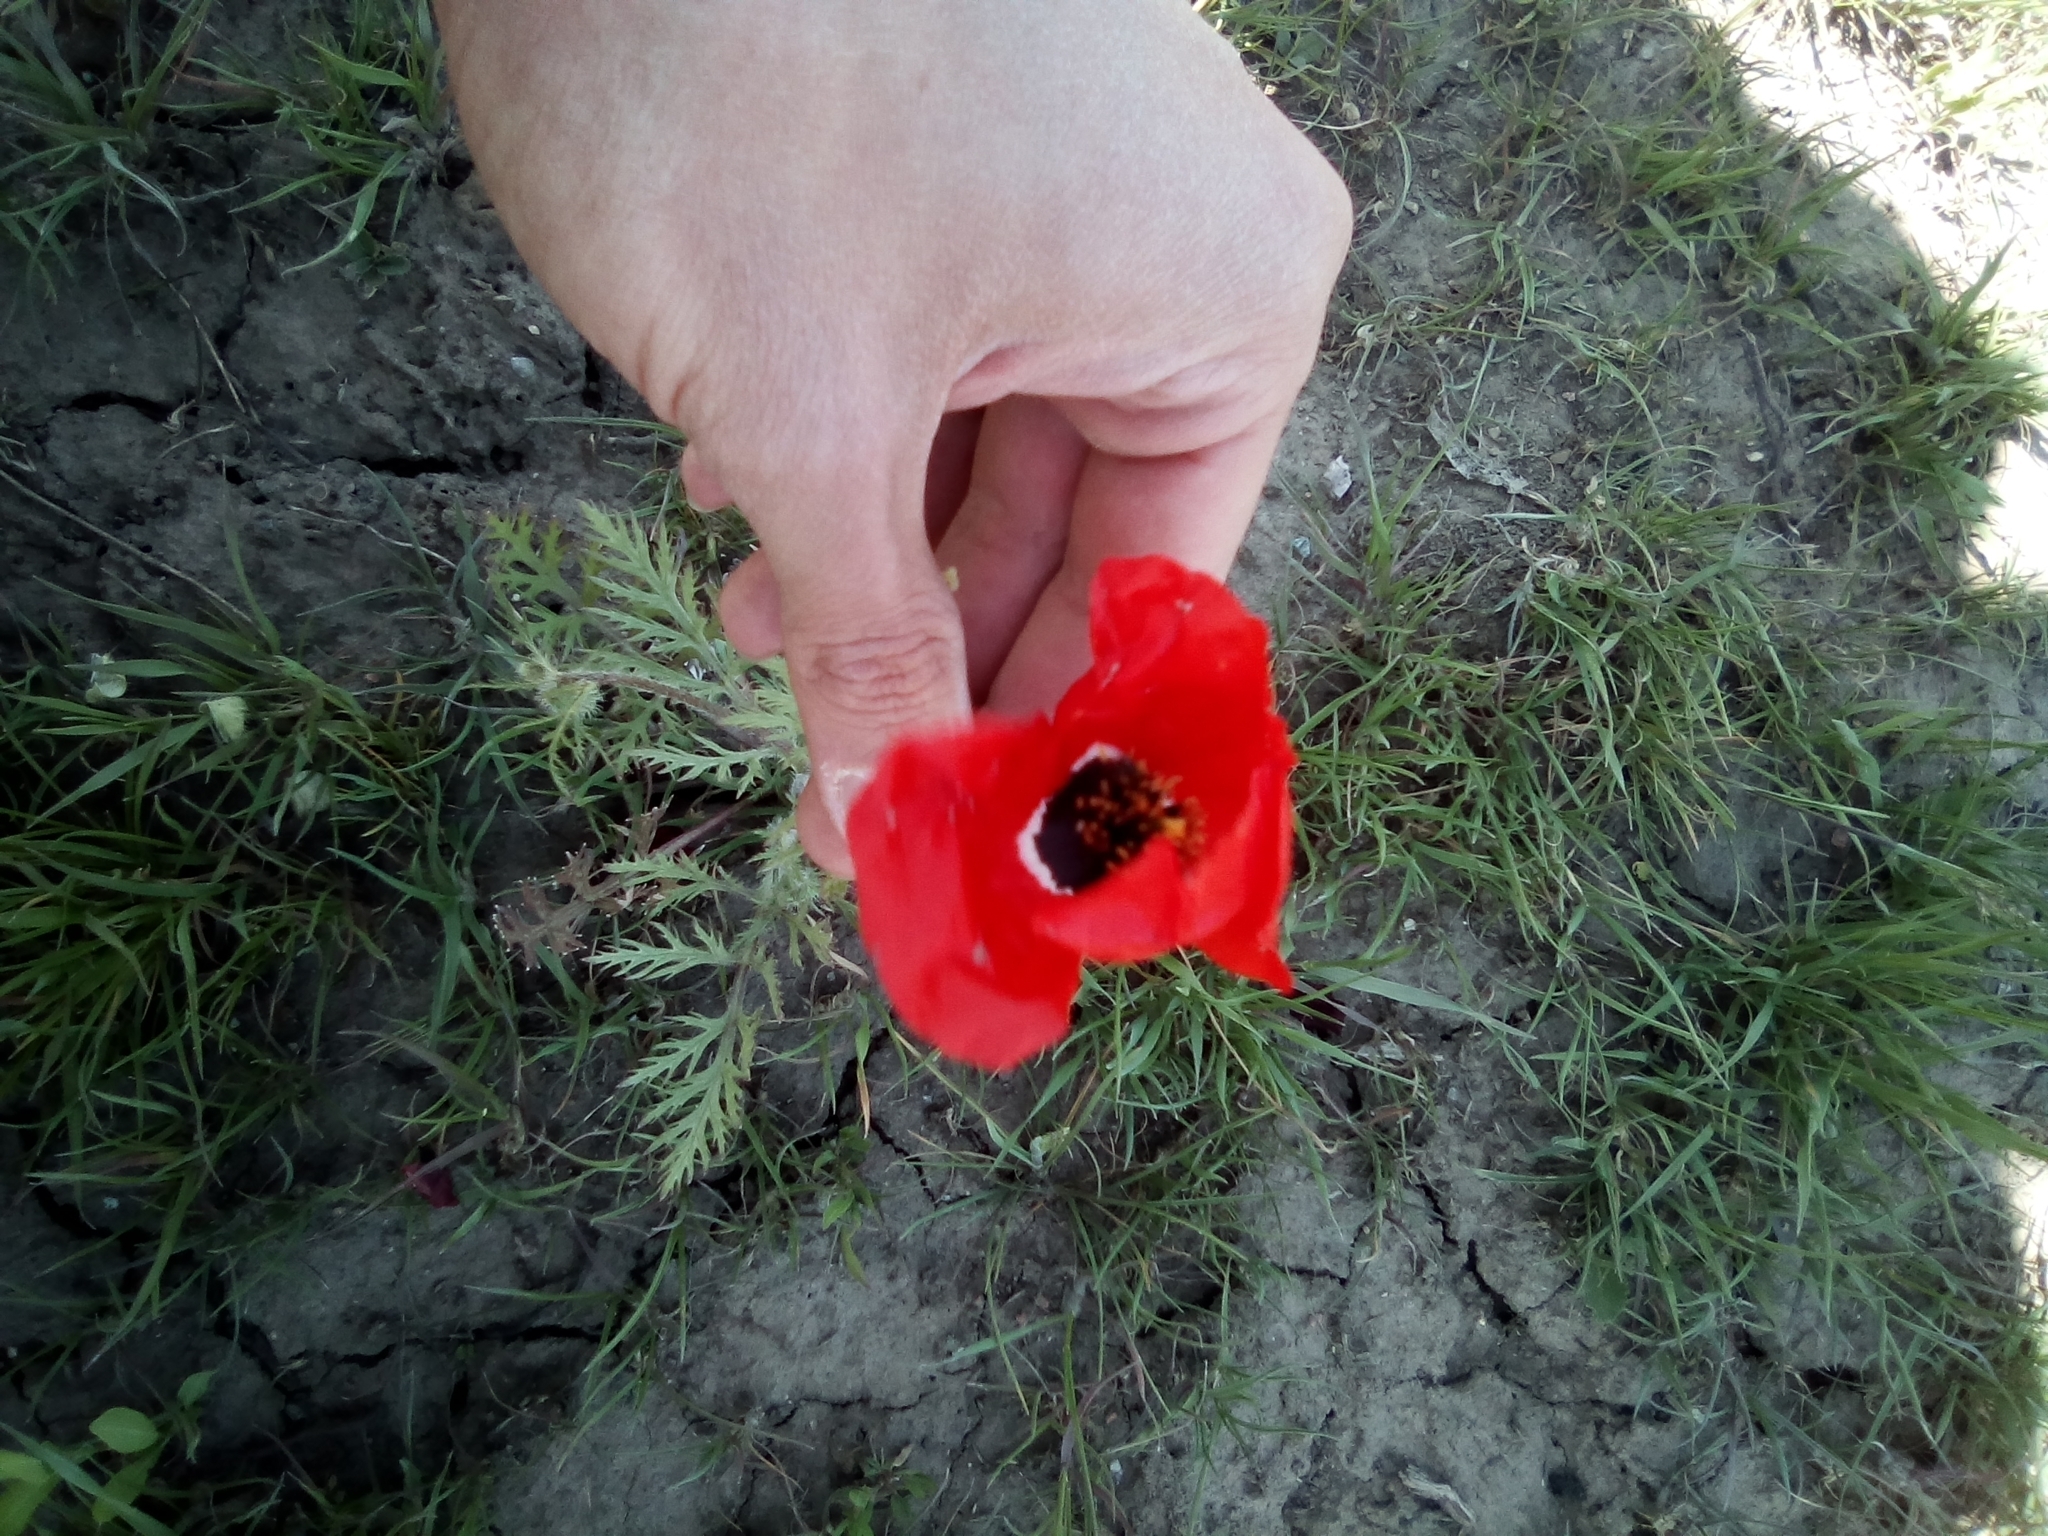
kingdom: Plantae
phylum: Tracheophyta
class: Magnoliopsida
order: Ranunculales
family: Papaveraceae
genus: Roemeria
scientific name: Roemeria refracta
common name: Spotted asian poppy
